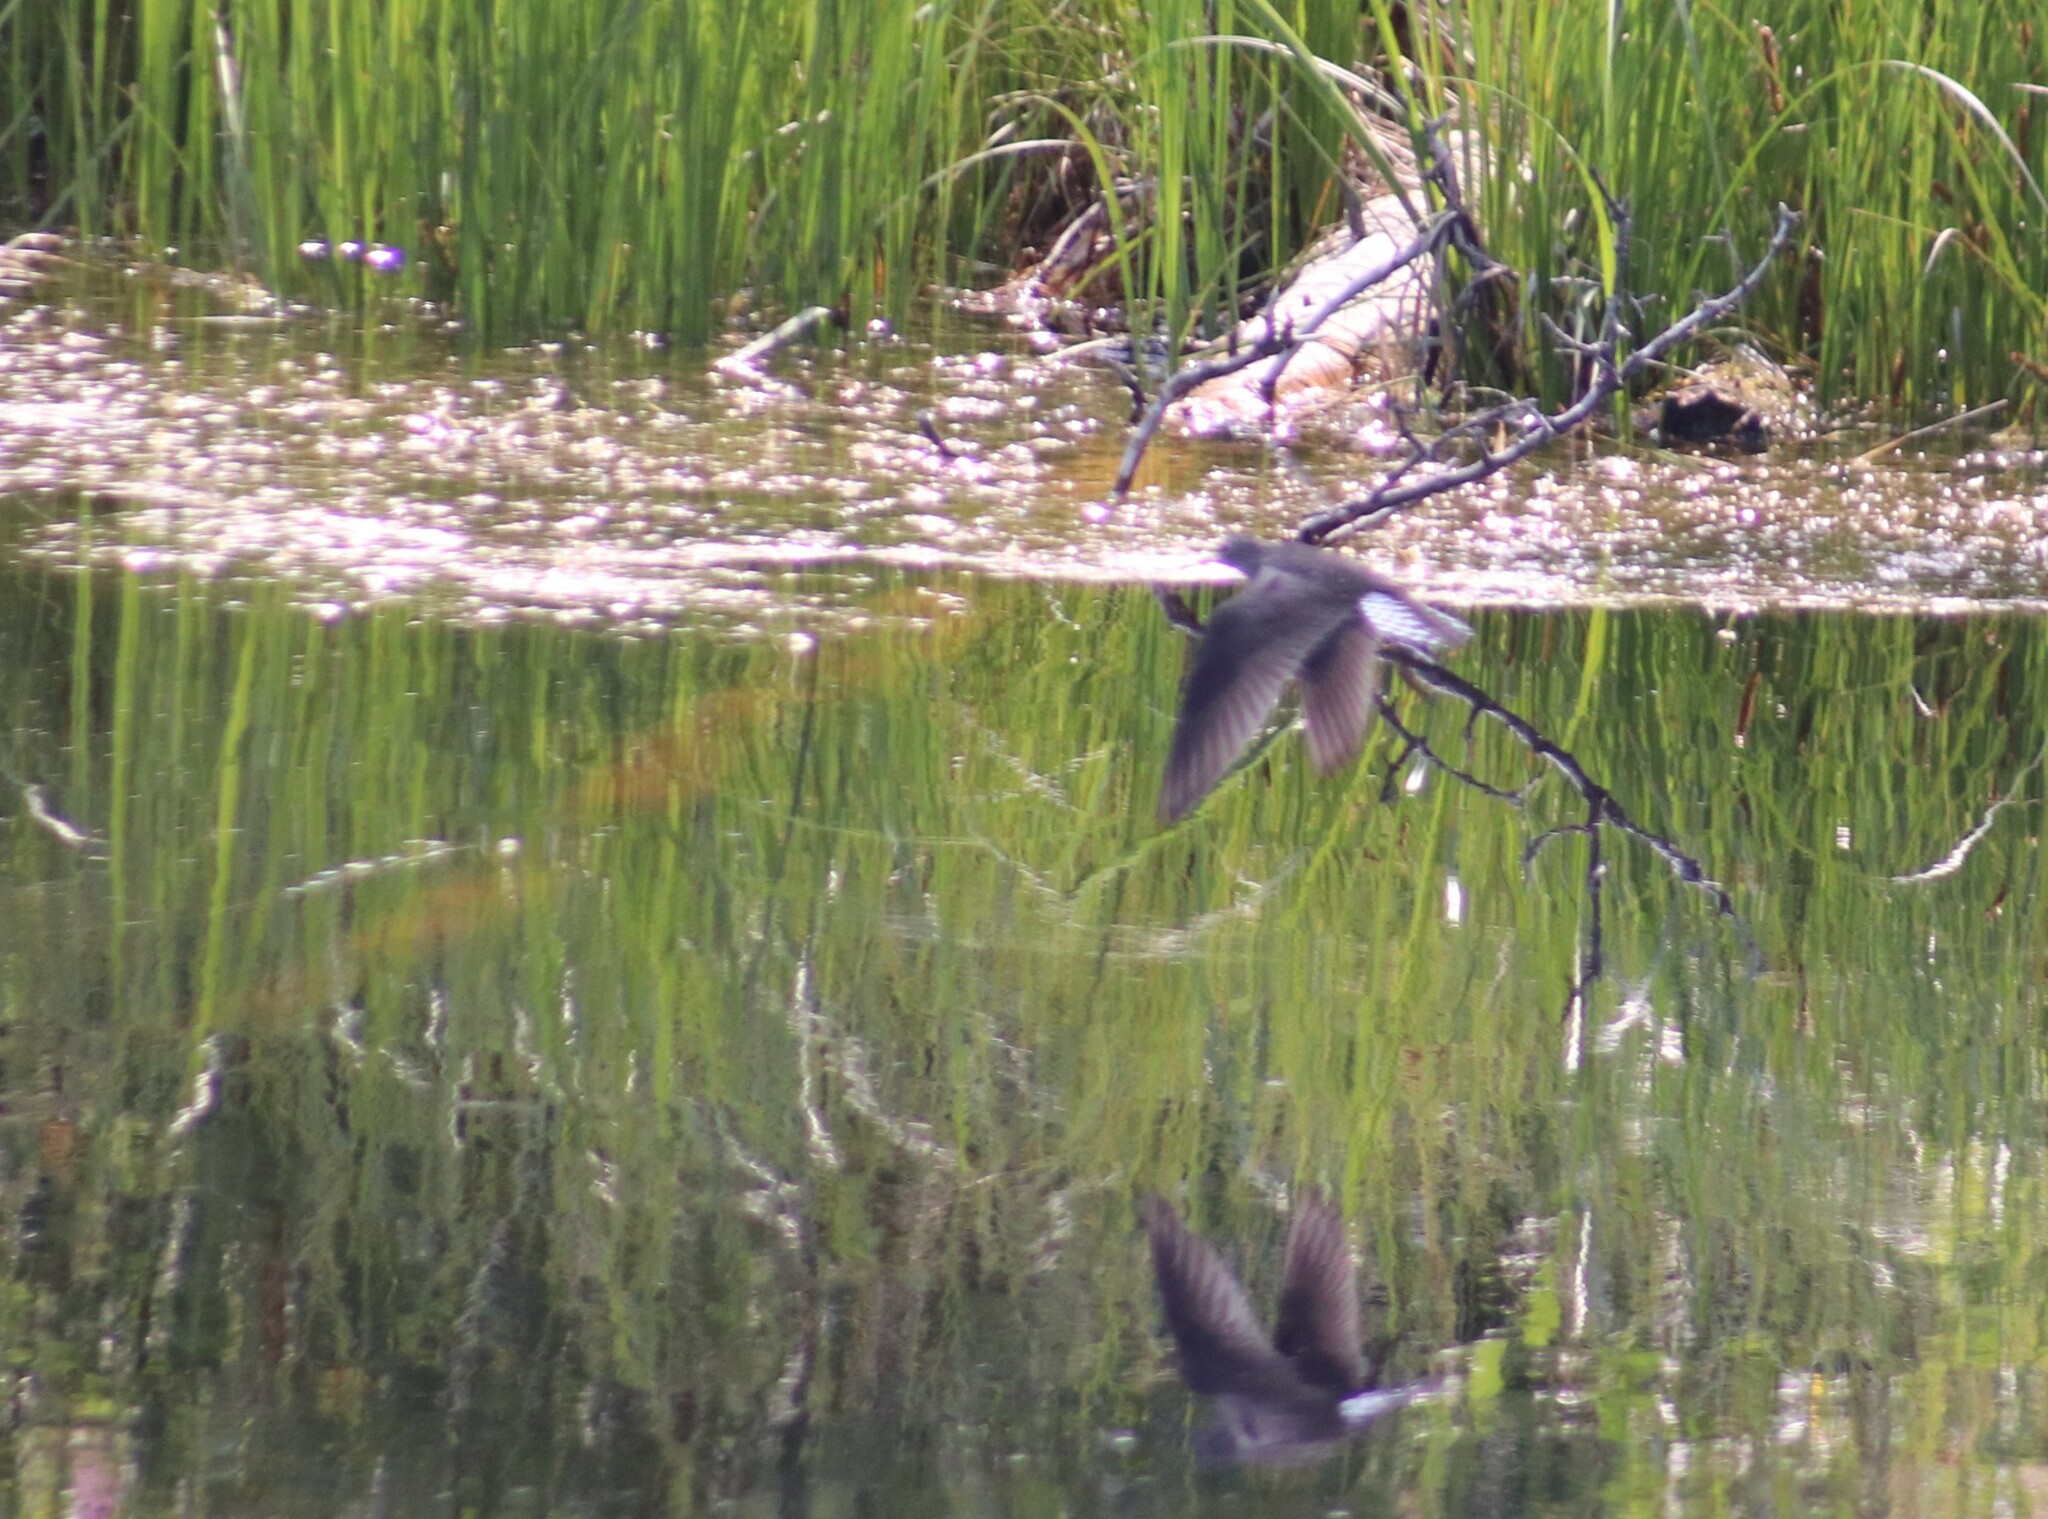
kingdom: Animalia
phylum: Chordata
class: Aves
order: Charadriiformes
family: Scolopacidae
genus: Tringa
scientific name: Tringa solitaria
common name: Solitary sandpiper
